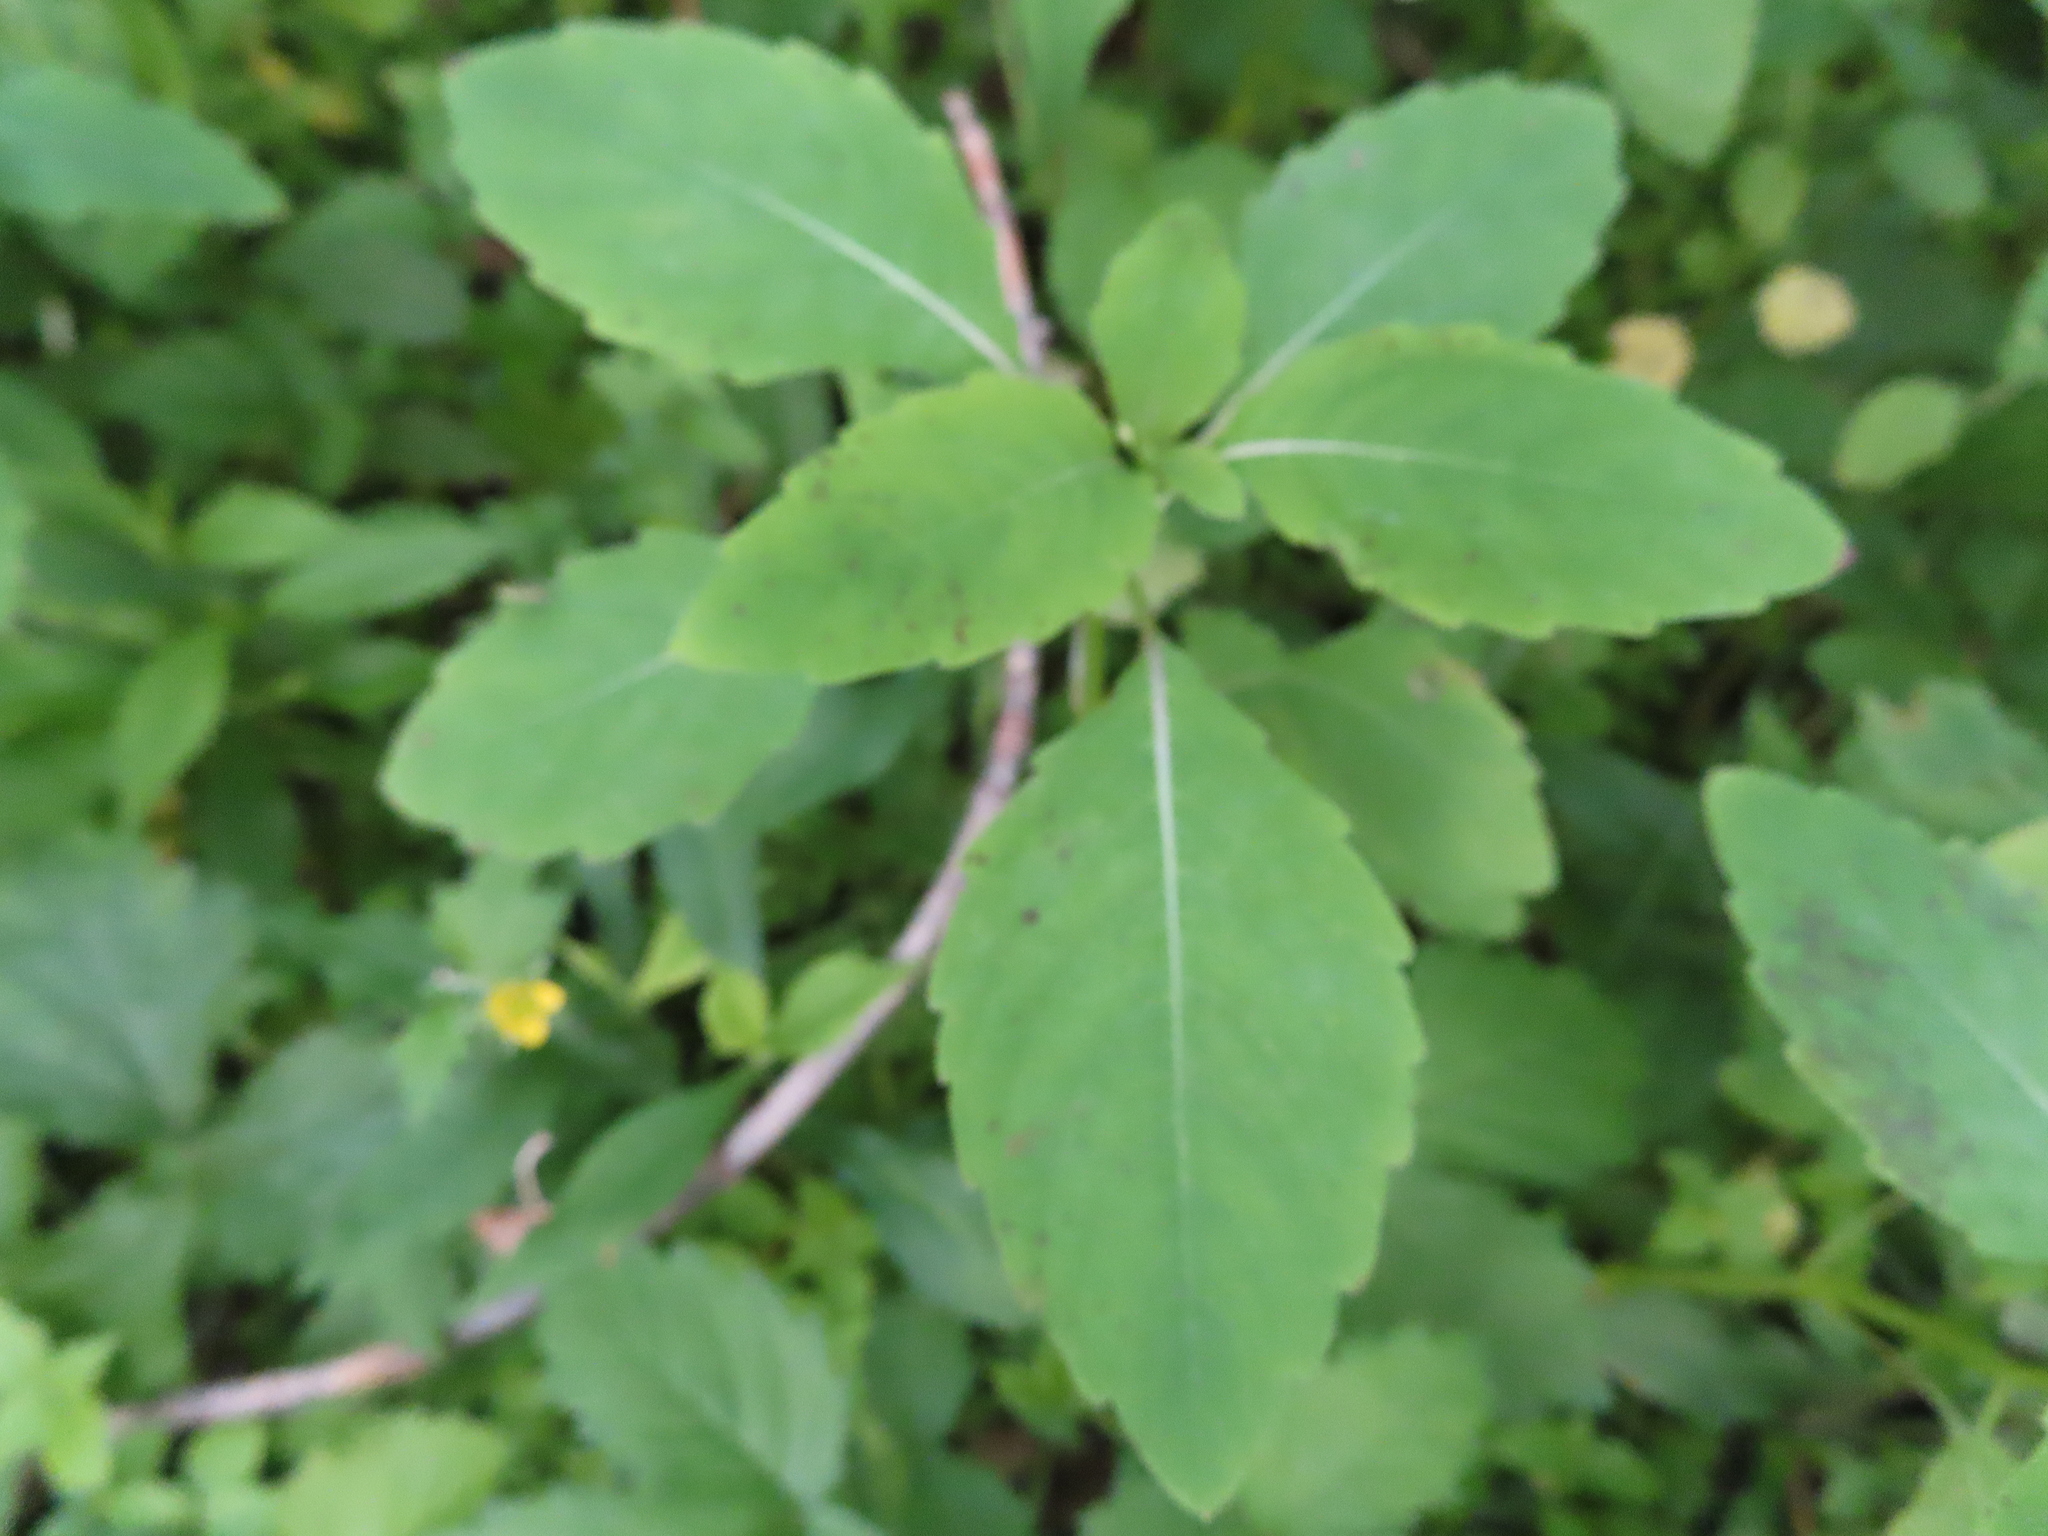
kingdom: Plantae
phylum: Tracheophyta
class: Magnoliopsida
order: Ericales
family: Balsaminaceae
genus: Impatiens
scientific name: Impatiens capensis
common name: Orange balsam
